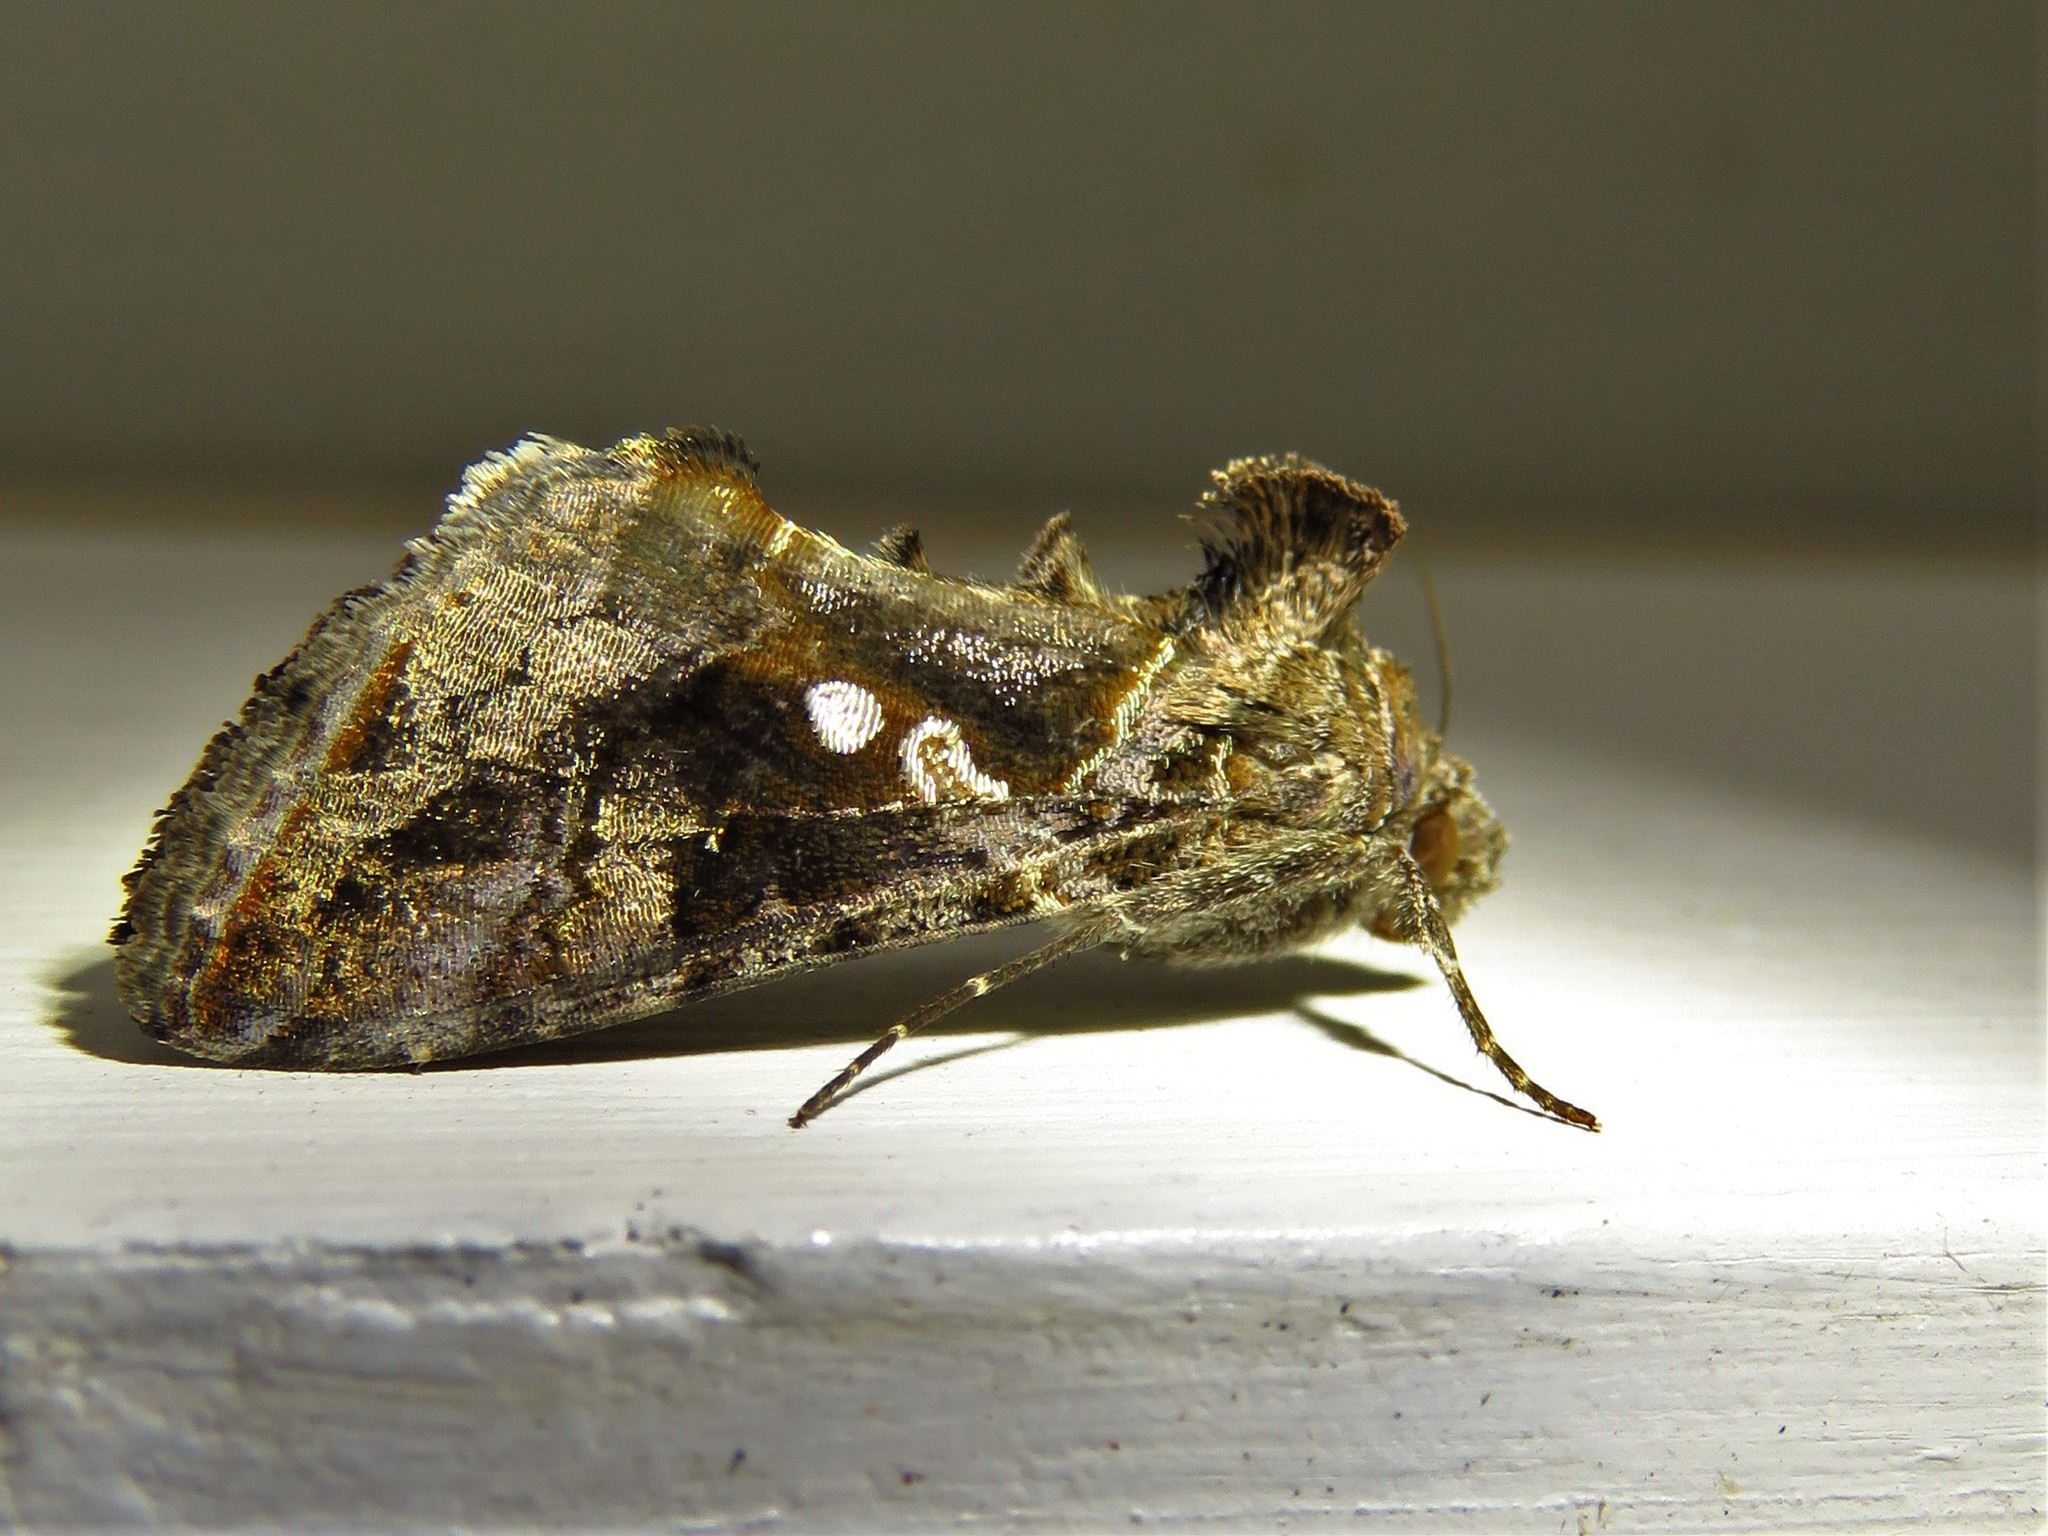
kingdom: Animalia
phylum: Arthropoda
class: Insecta
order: Lepidoptera
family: Noctuidae
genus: Chrysodeixis
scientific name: Chrysodeixis includens
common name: Cutworm moth
